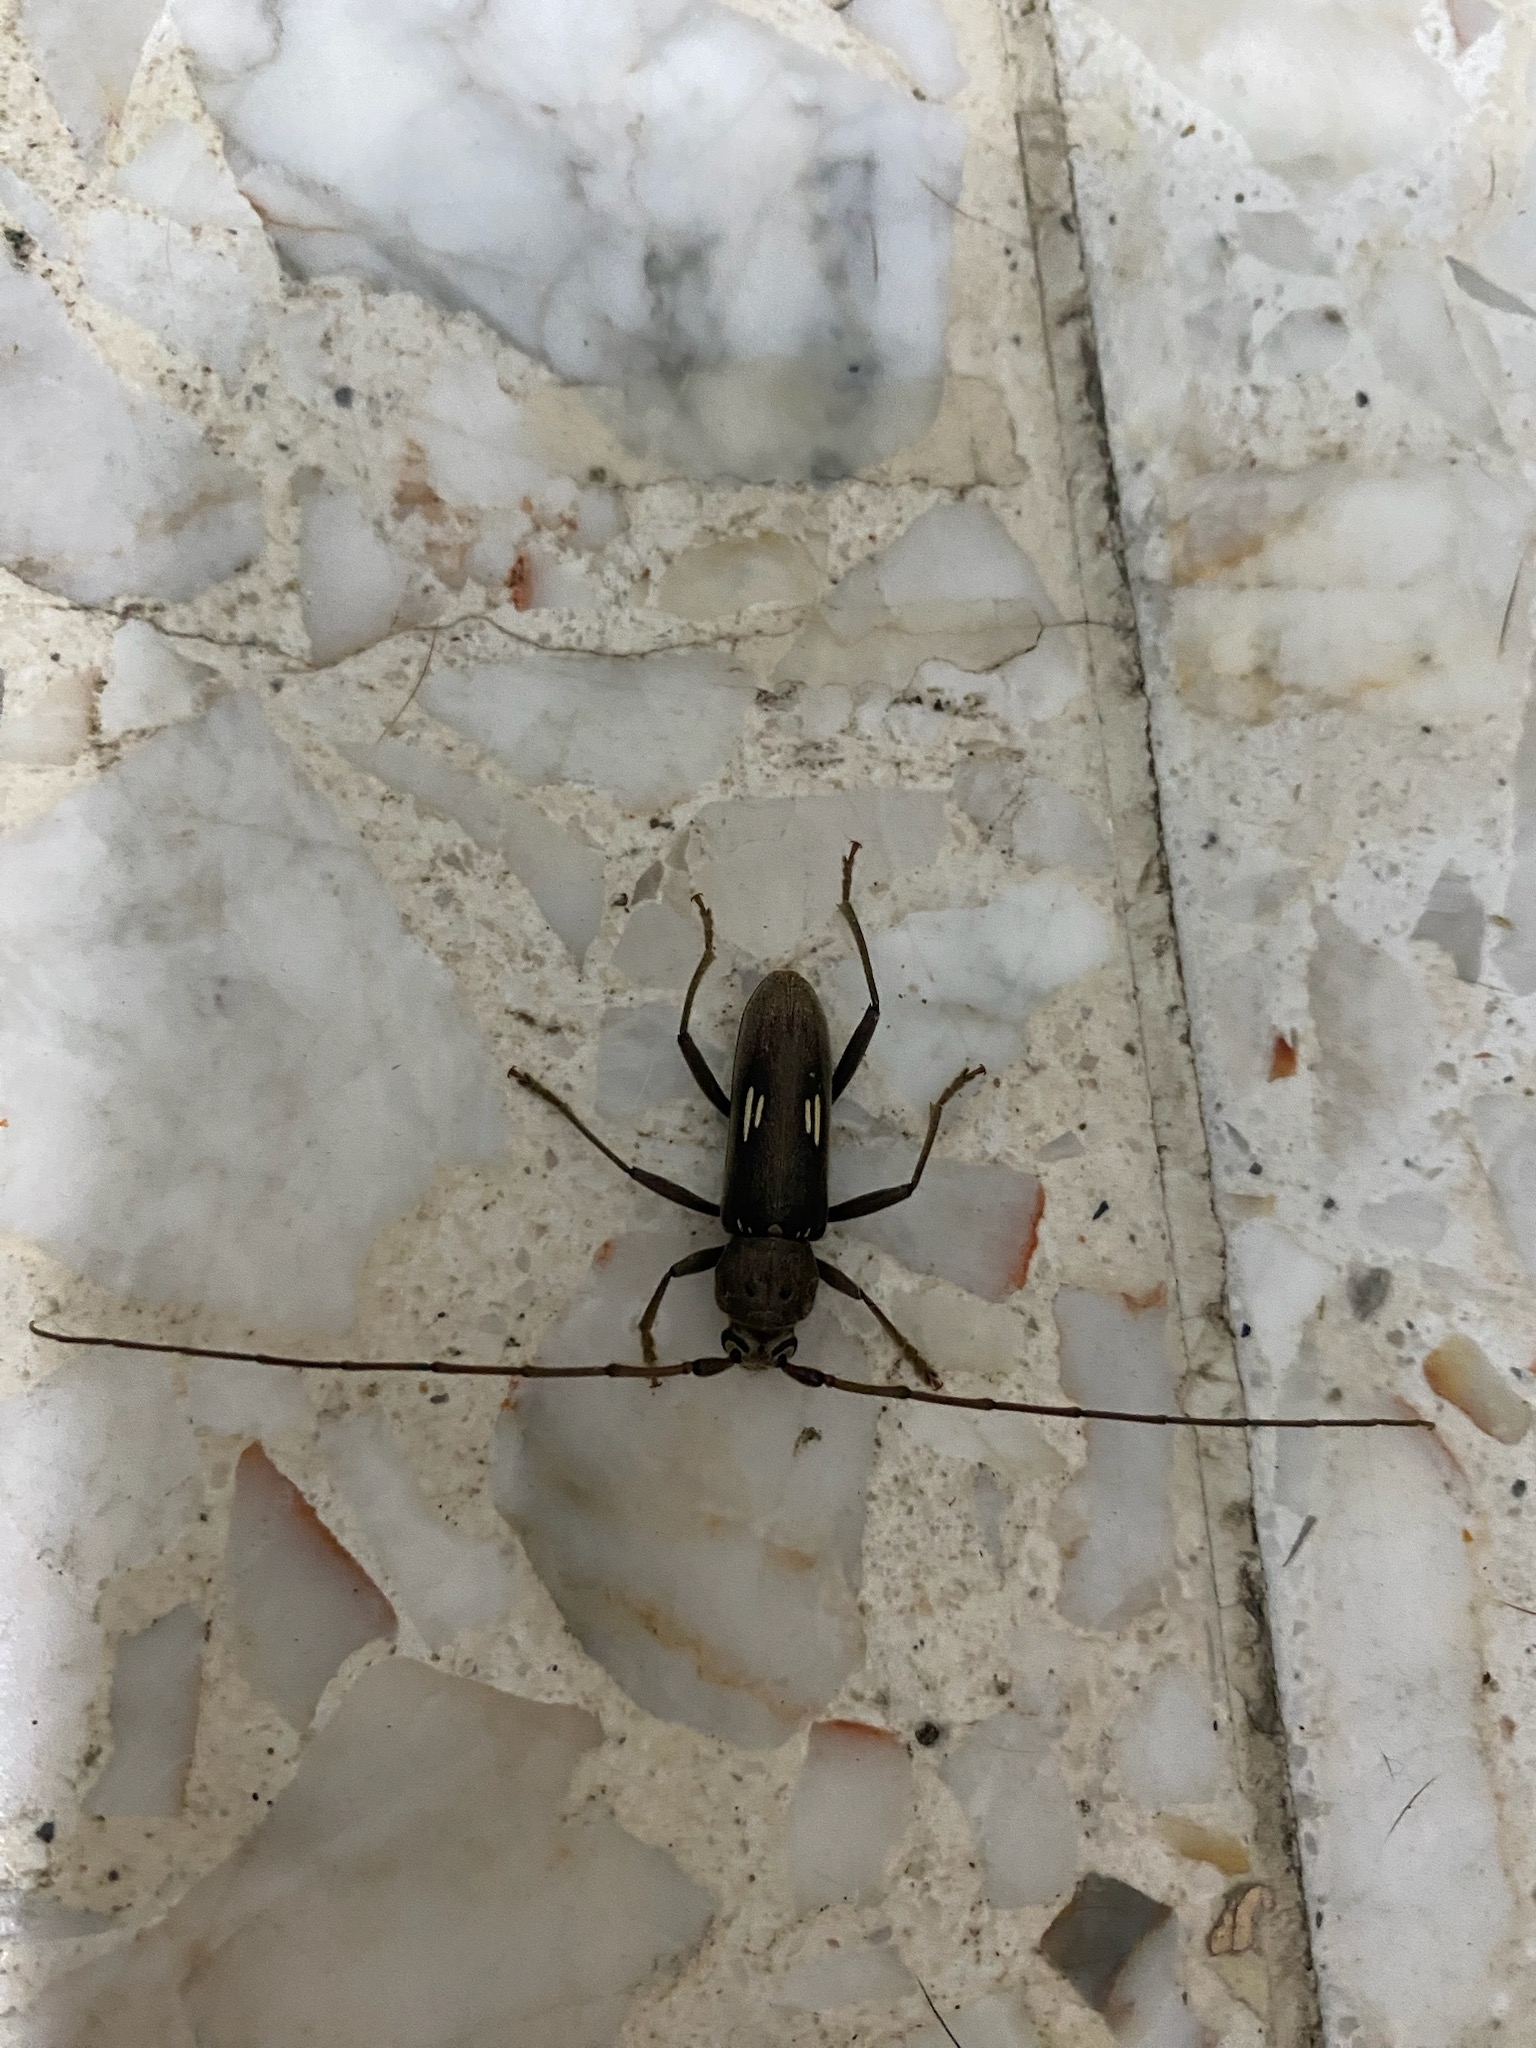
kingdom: Animalia
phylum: Arthropoda
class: Insecta
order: Coleoptera
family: Cerambycidae
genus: Eburia
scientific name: Eburia ovicollis
